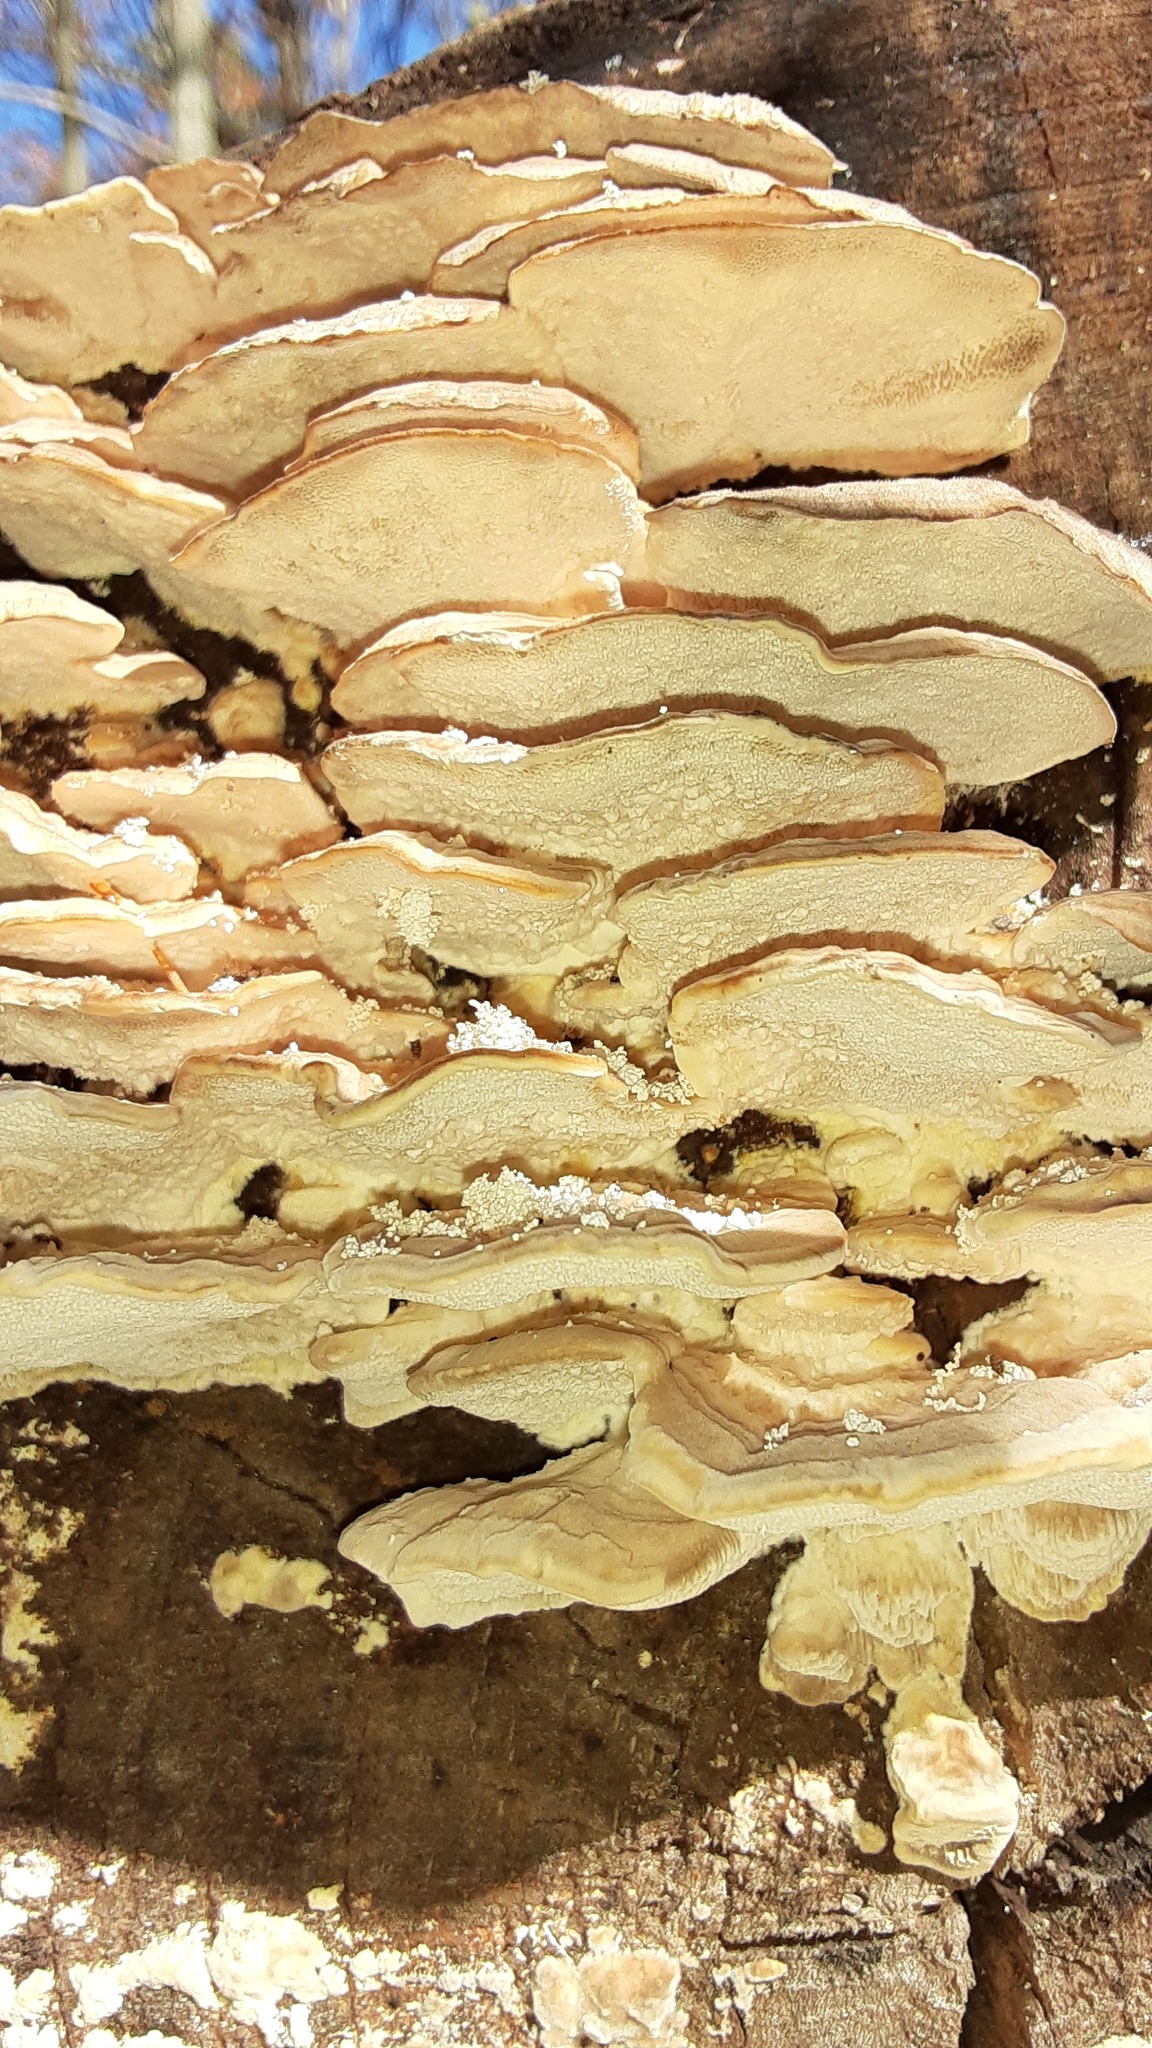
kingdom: Fungi
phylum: Basidiomycota
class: Agaricomycetes
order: Polyporales
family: Polyporaceae
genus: Trametes
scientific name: Trametes gibbosa
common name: Lumpy bracket
